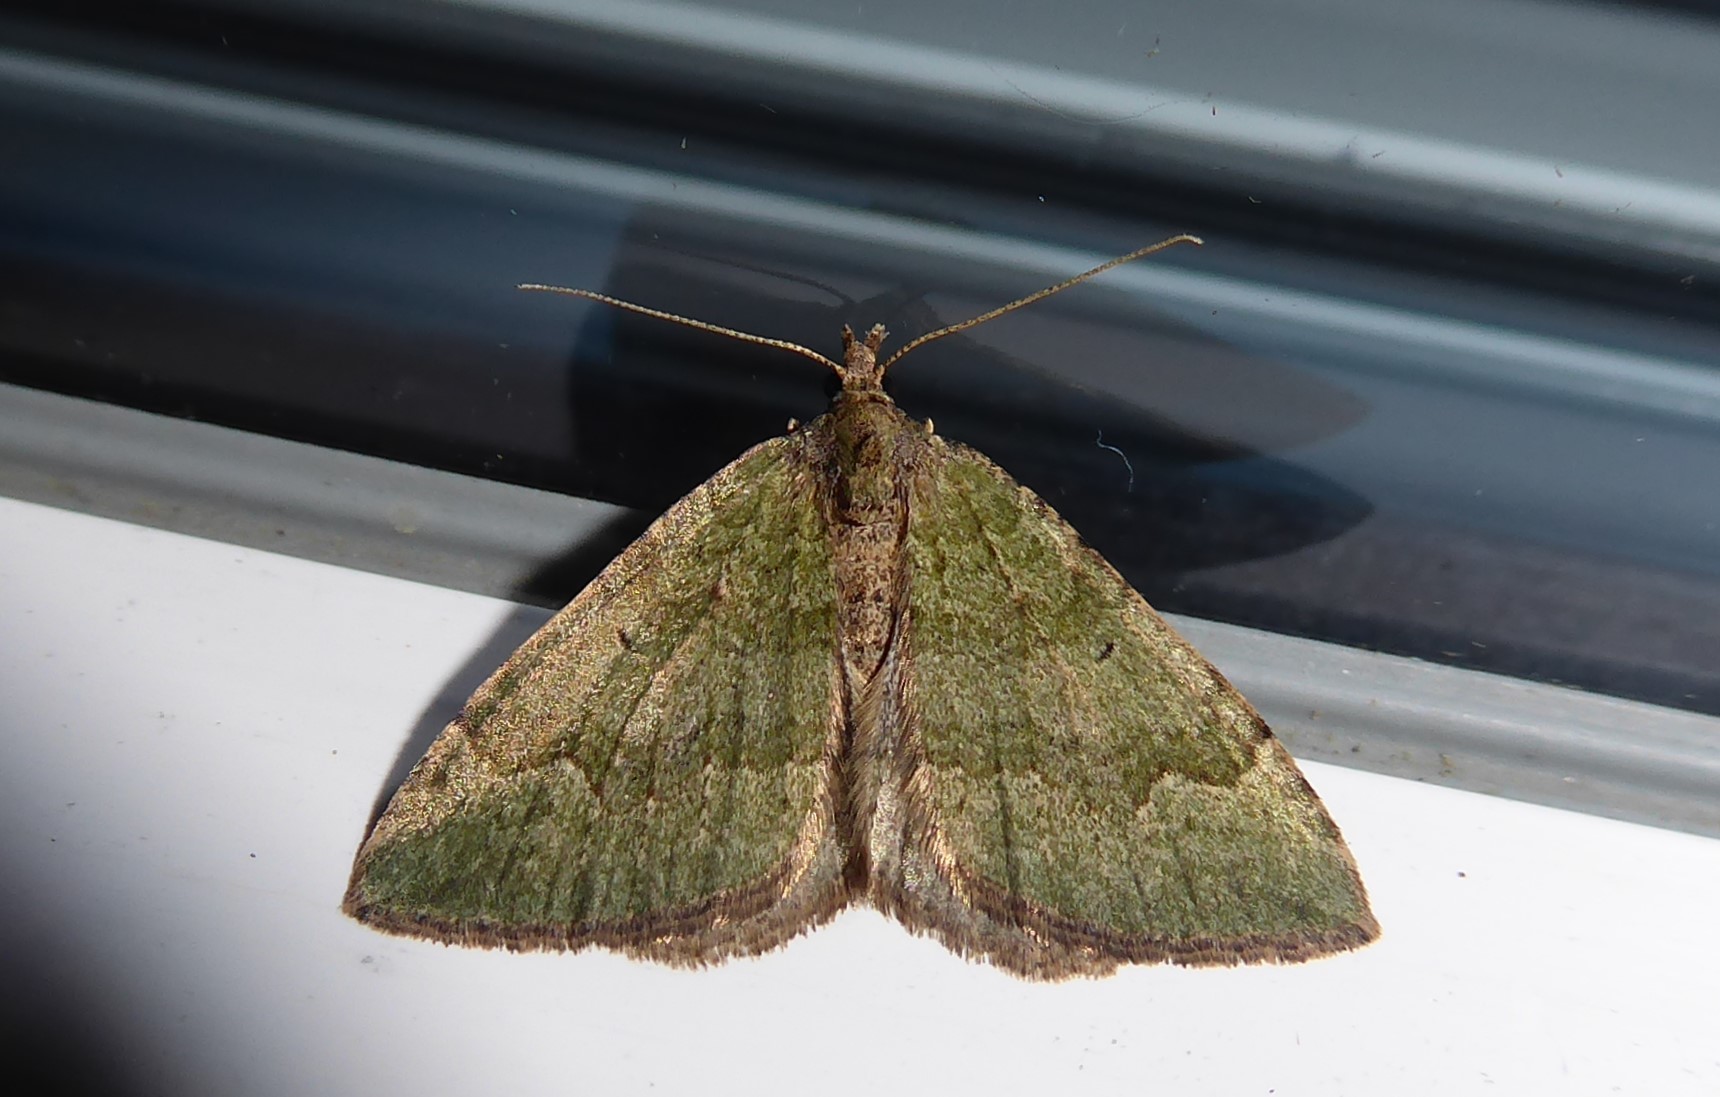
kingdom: Animalia
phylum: Arthropoda
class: Insecta
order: Lepidoptera
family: Geometridae
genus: Epyaxa
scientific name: Epyaxa rosearia
